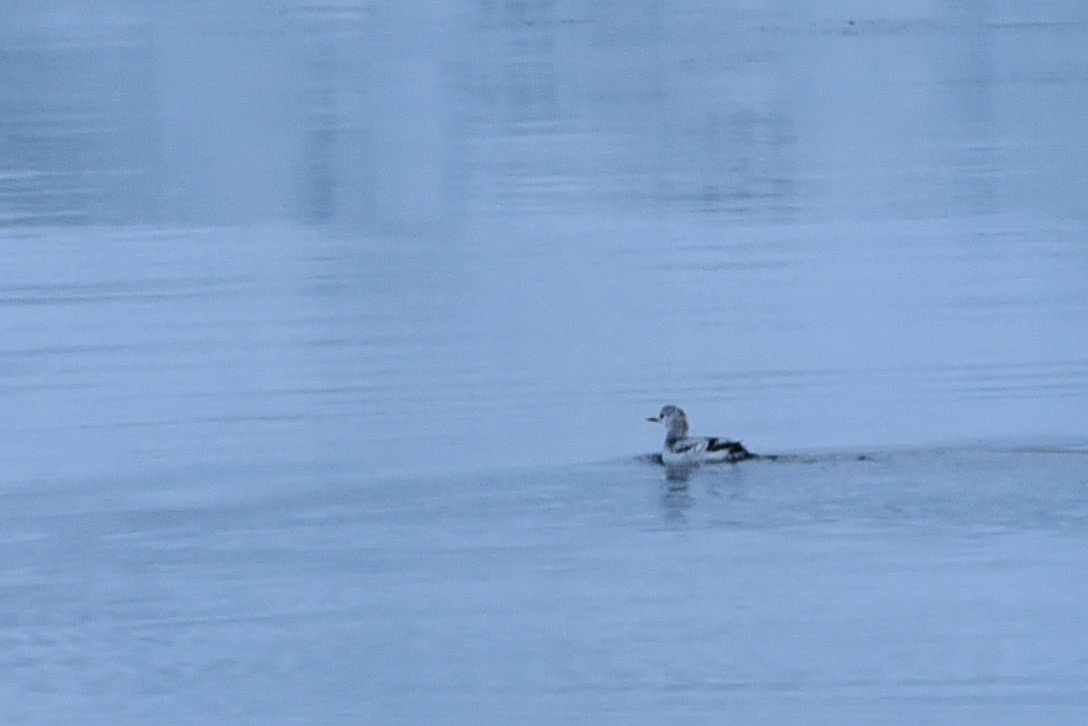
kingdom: Animalia
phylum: Chordata
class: Aves
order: Charadriiformes
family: Alcidae
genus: Cepphus
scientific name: Cepphus grylle
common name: Black guillemot
